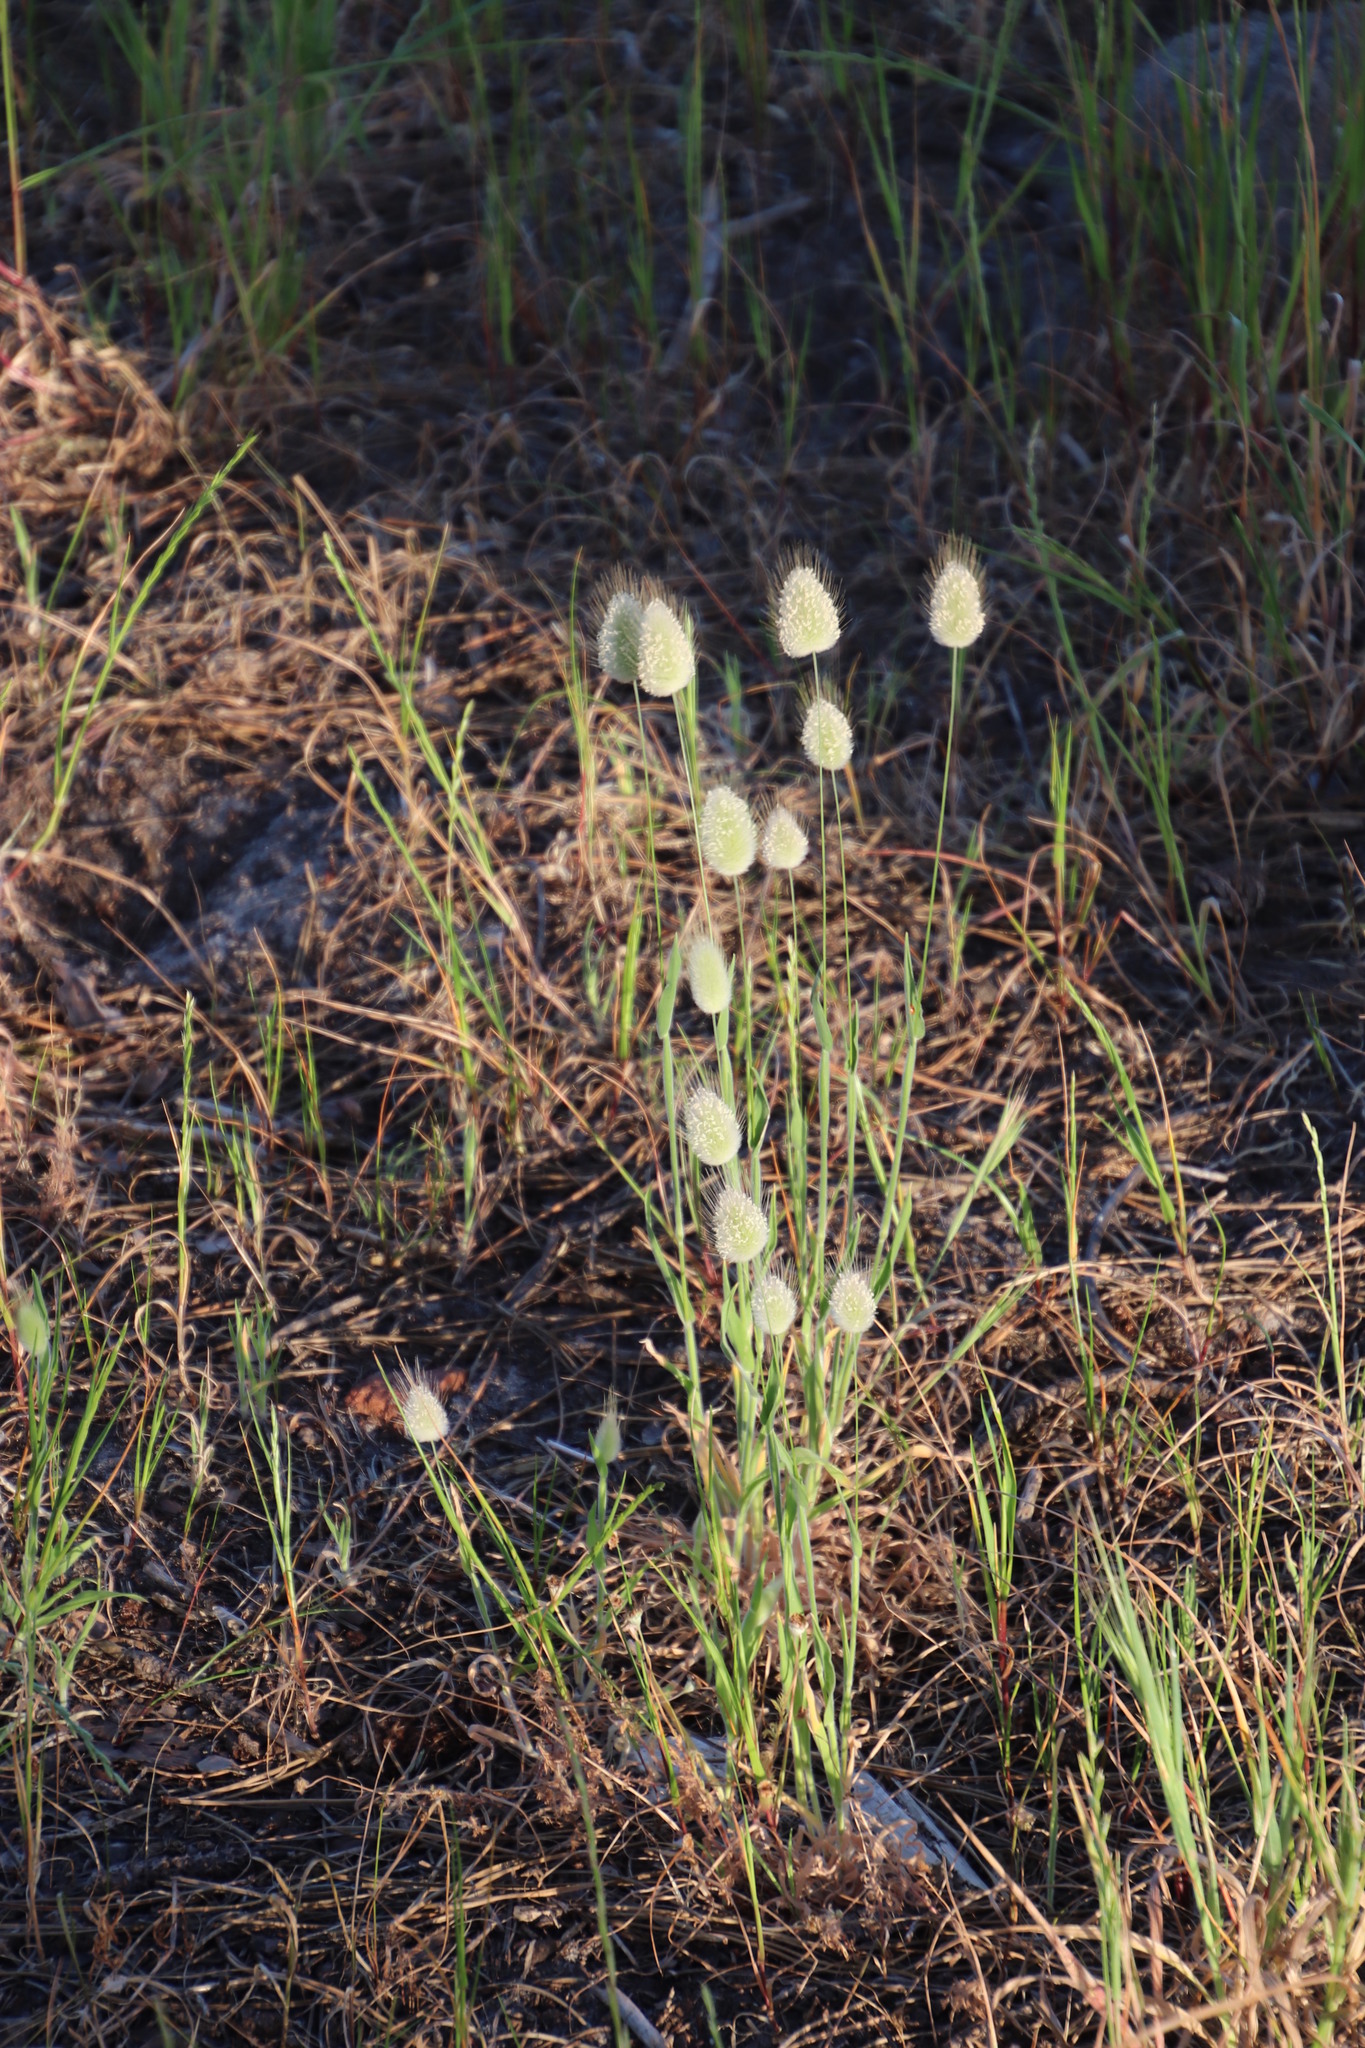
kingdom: Plantae
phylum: Tracheophyta
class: Liliopsida
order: Poales
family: Poaceae
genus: Lagurus
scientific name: Lagurus ovatus
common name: Hare's-tail
